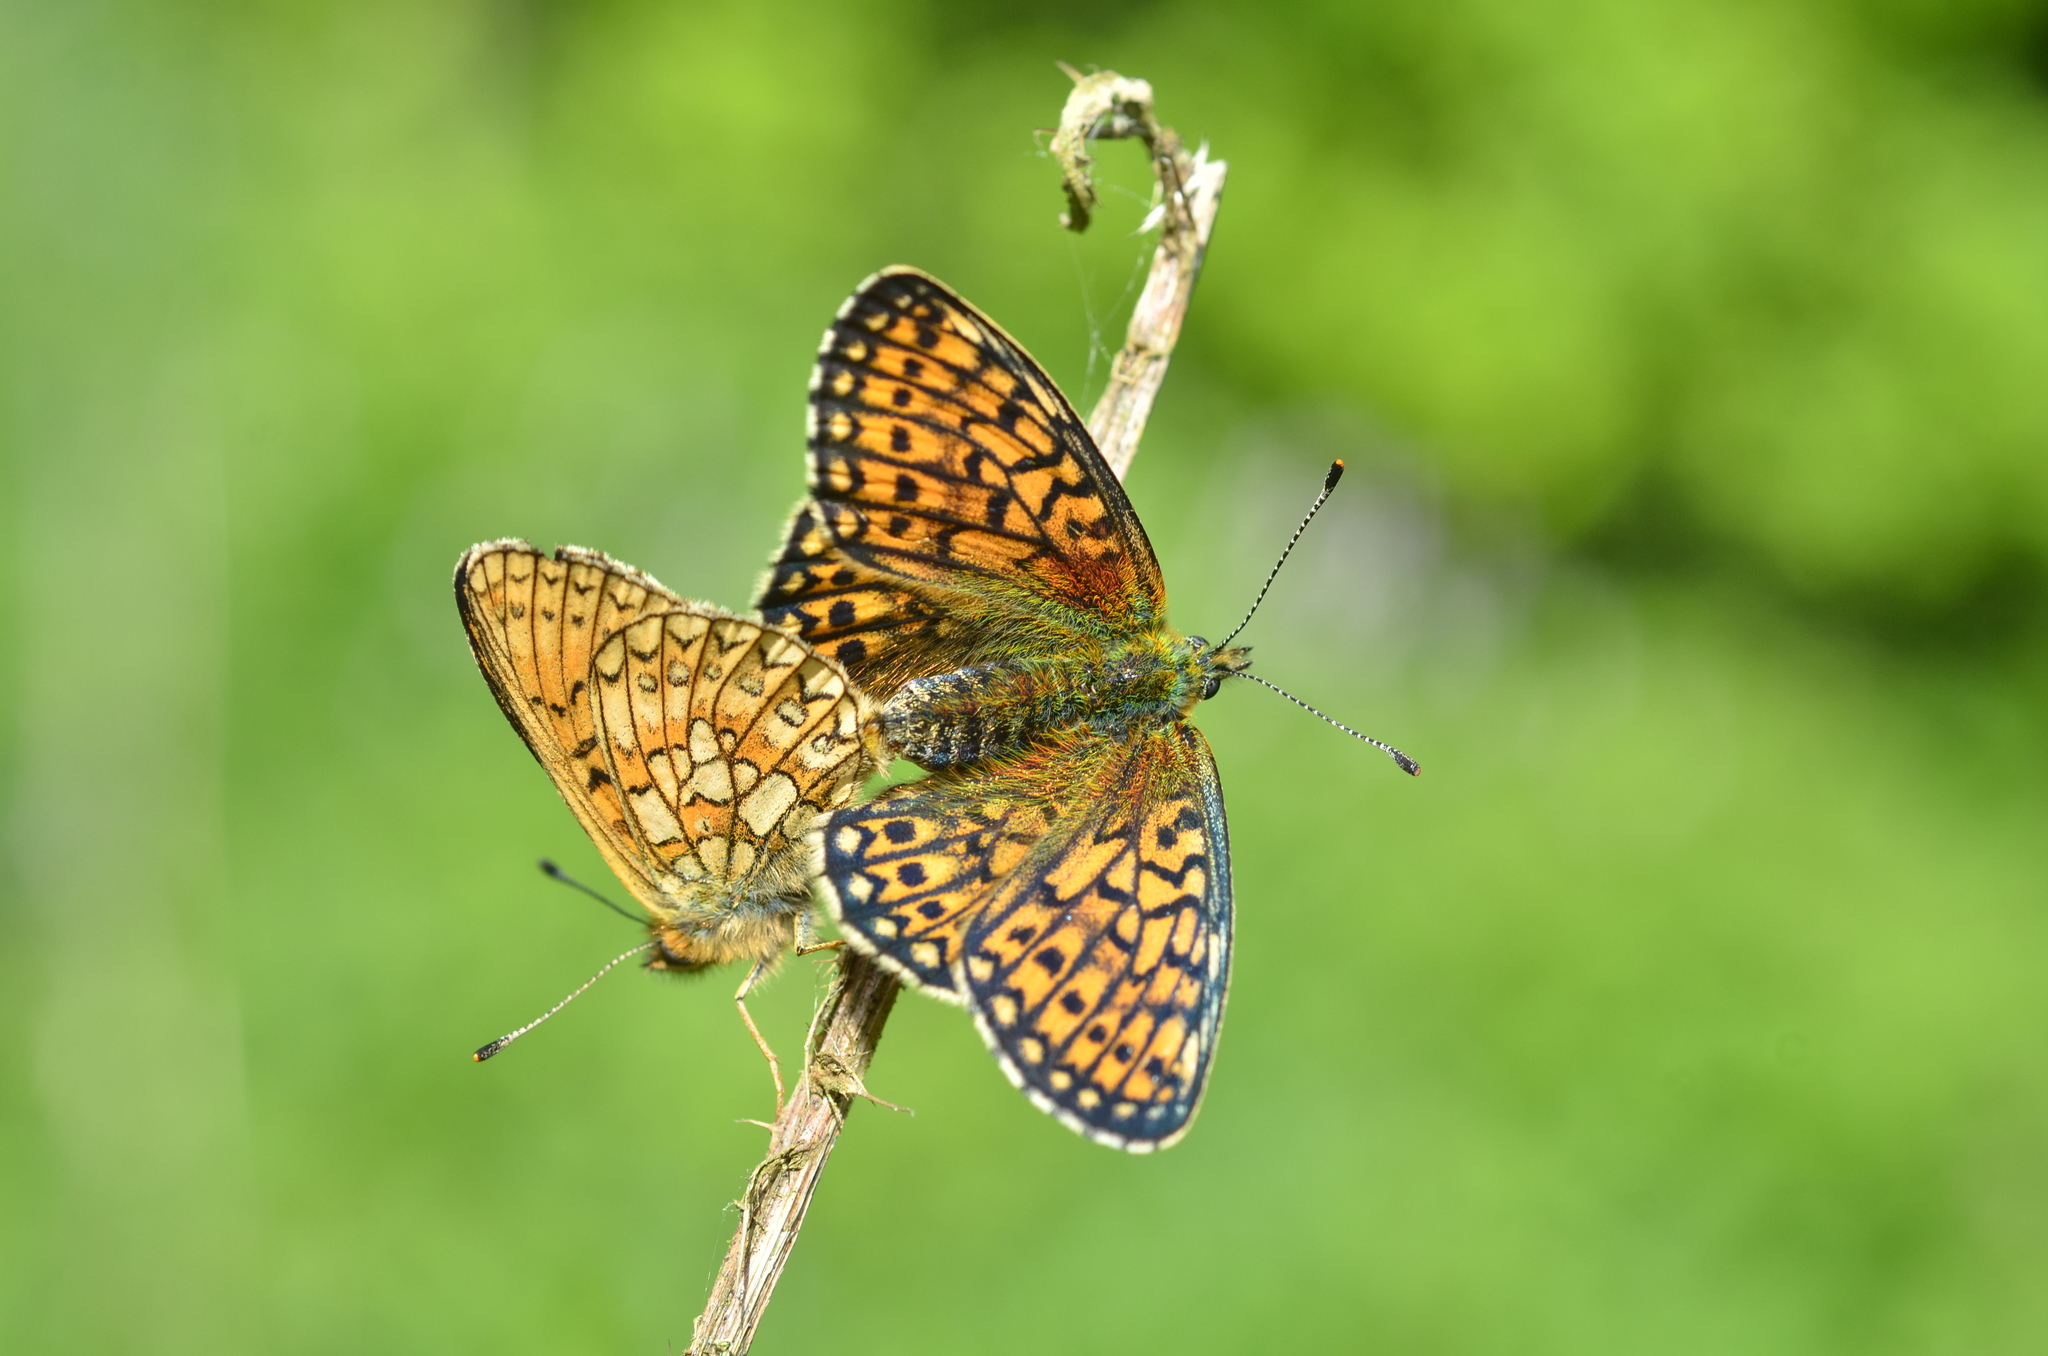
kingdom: Animalia
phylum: Arthropoda
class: Insecta
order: Lepidoptera
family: Nymphalidae
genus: Boloria
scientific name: Boloria eunomia
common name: Bog fritillary
